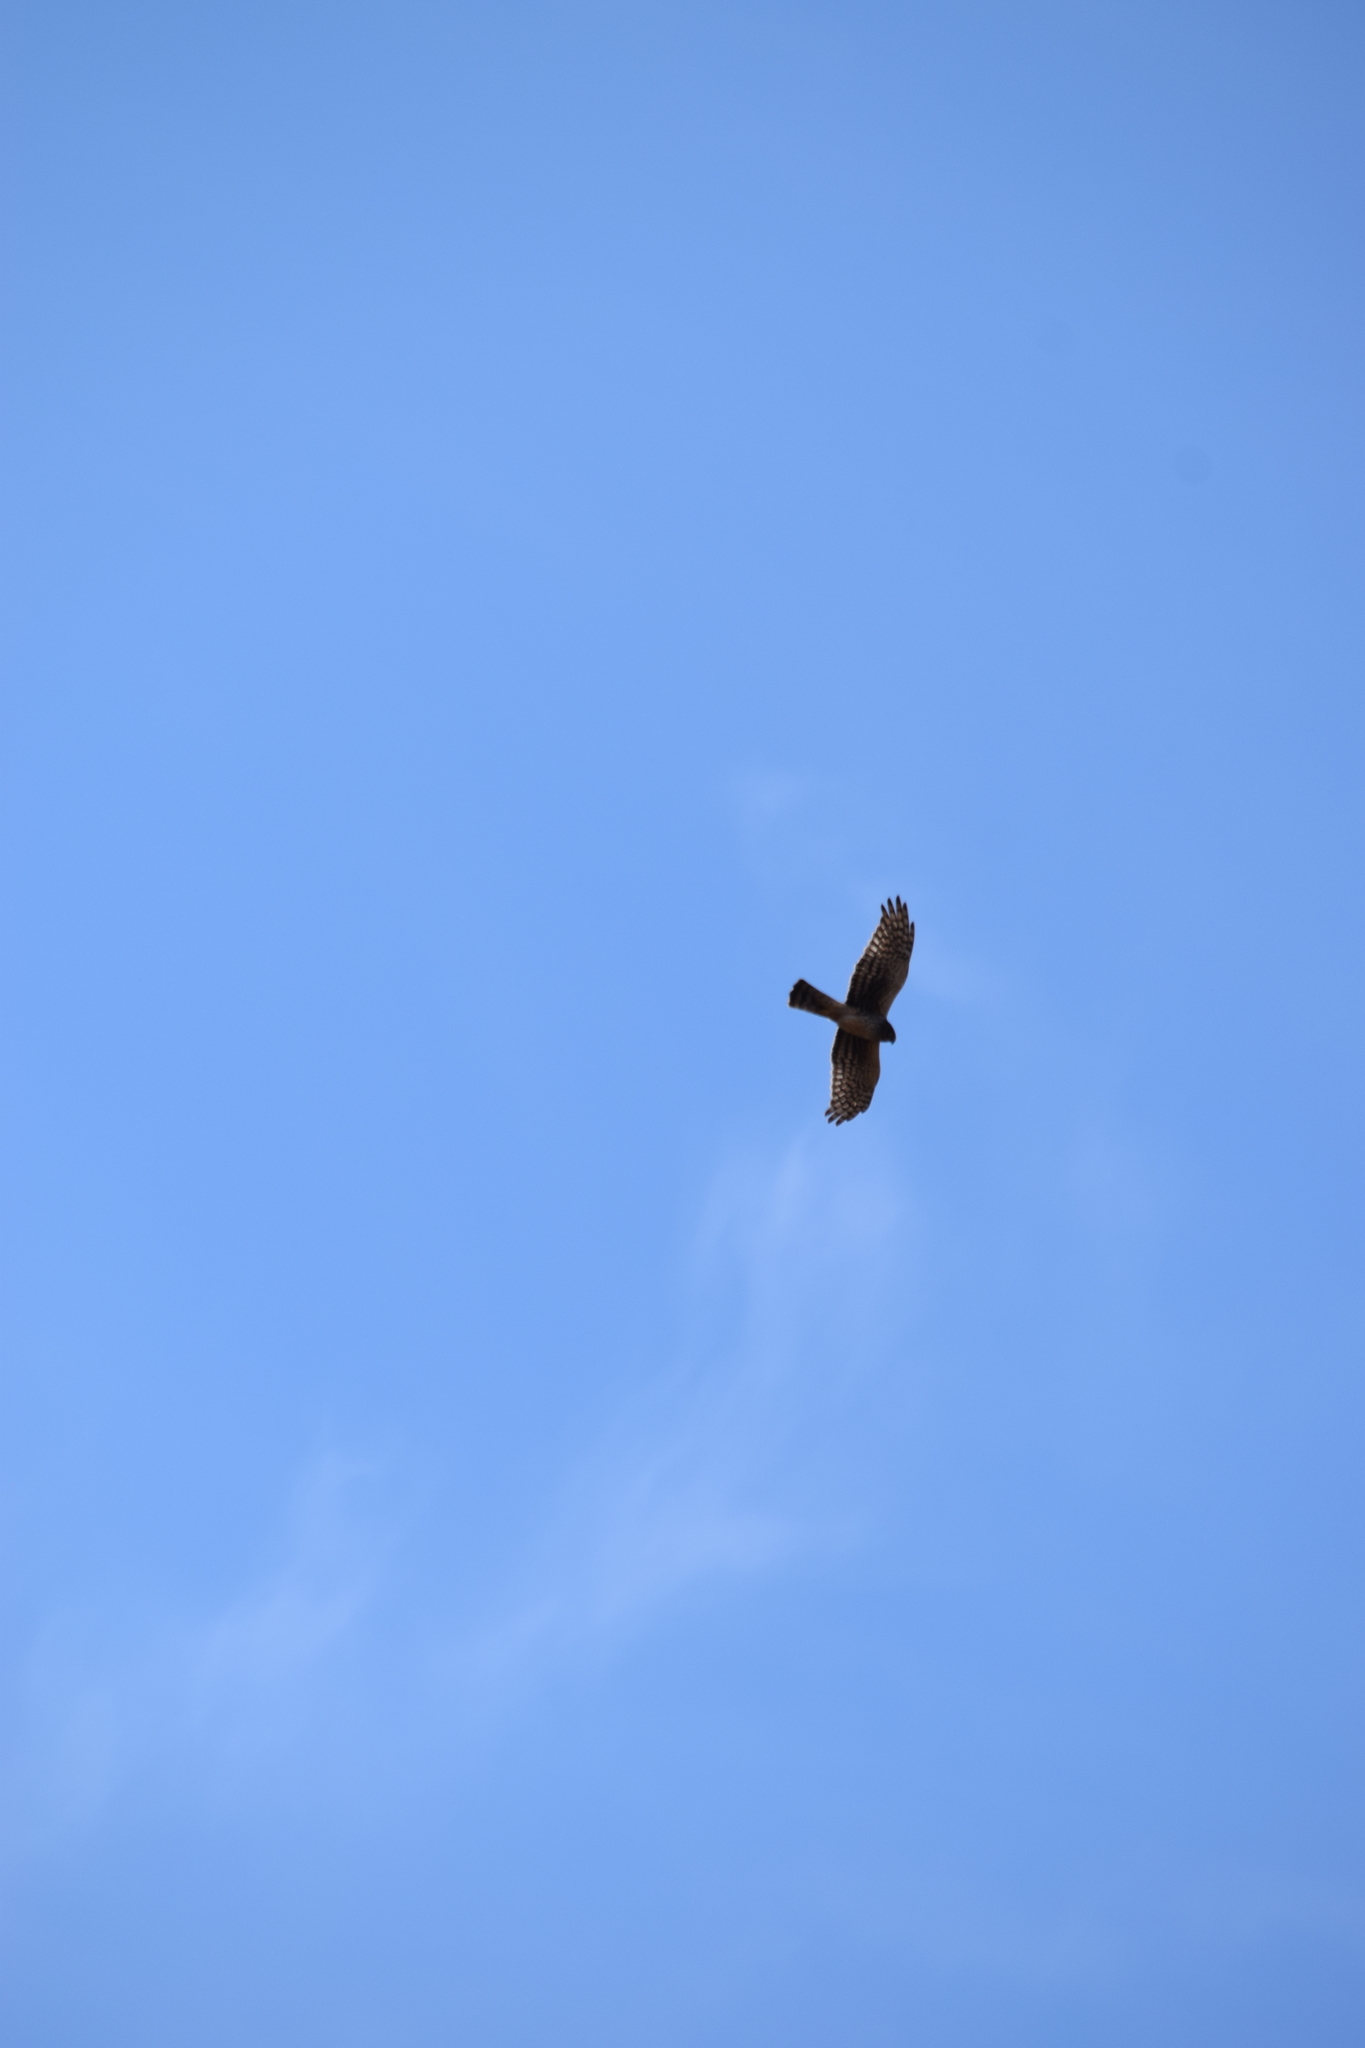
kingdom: Animalia
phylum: Chordata
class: Aves
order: Accipitriformes
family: Accipitridae
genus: Circus
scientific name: Circus cyaneus
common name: Hen harrier
